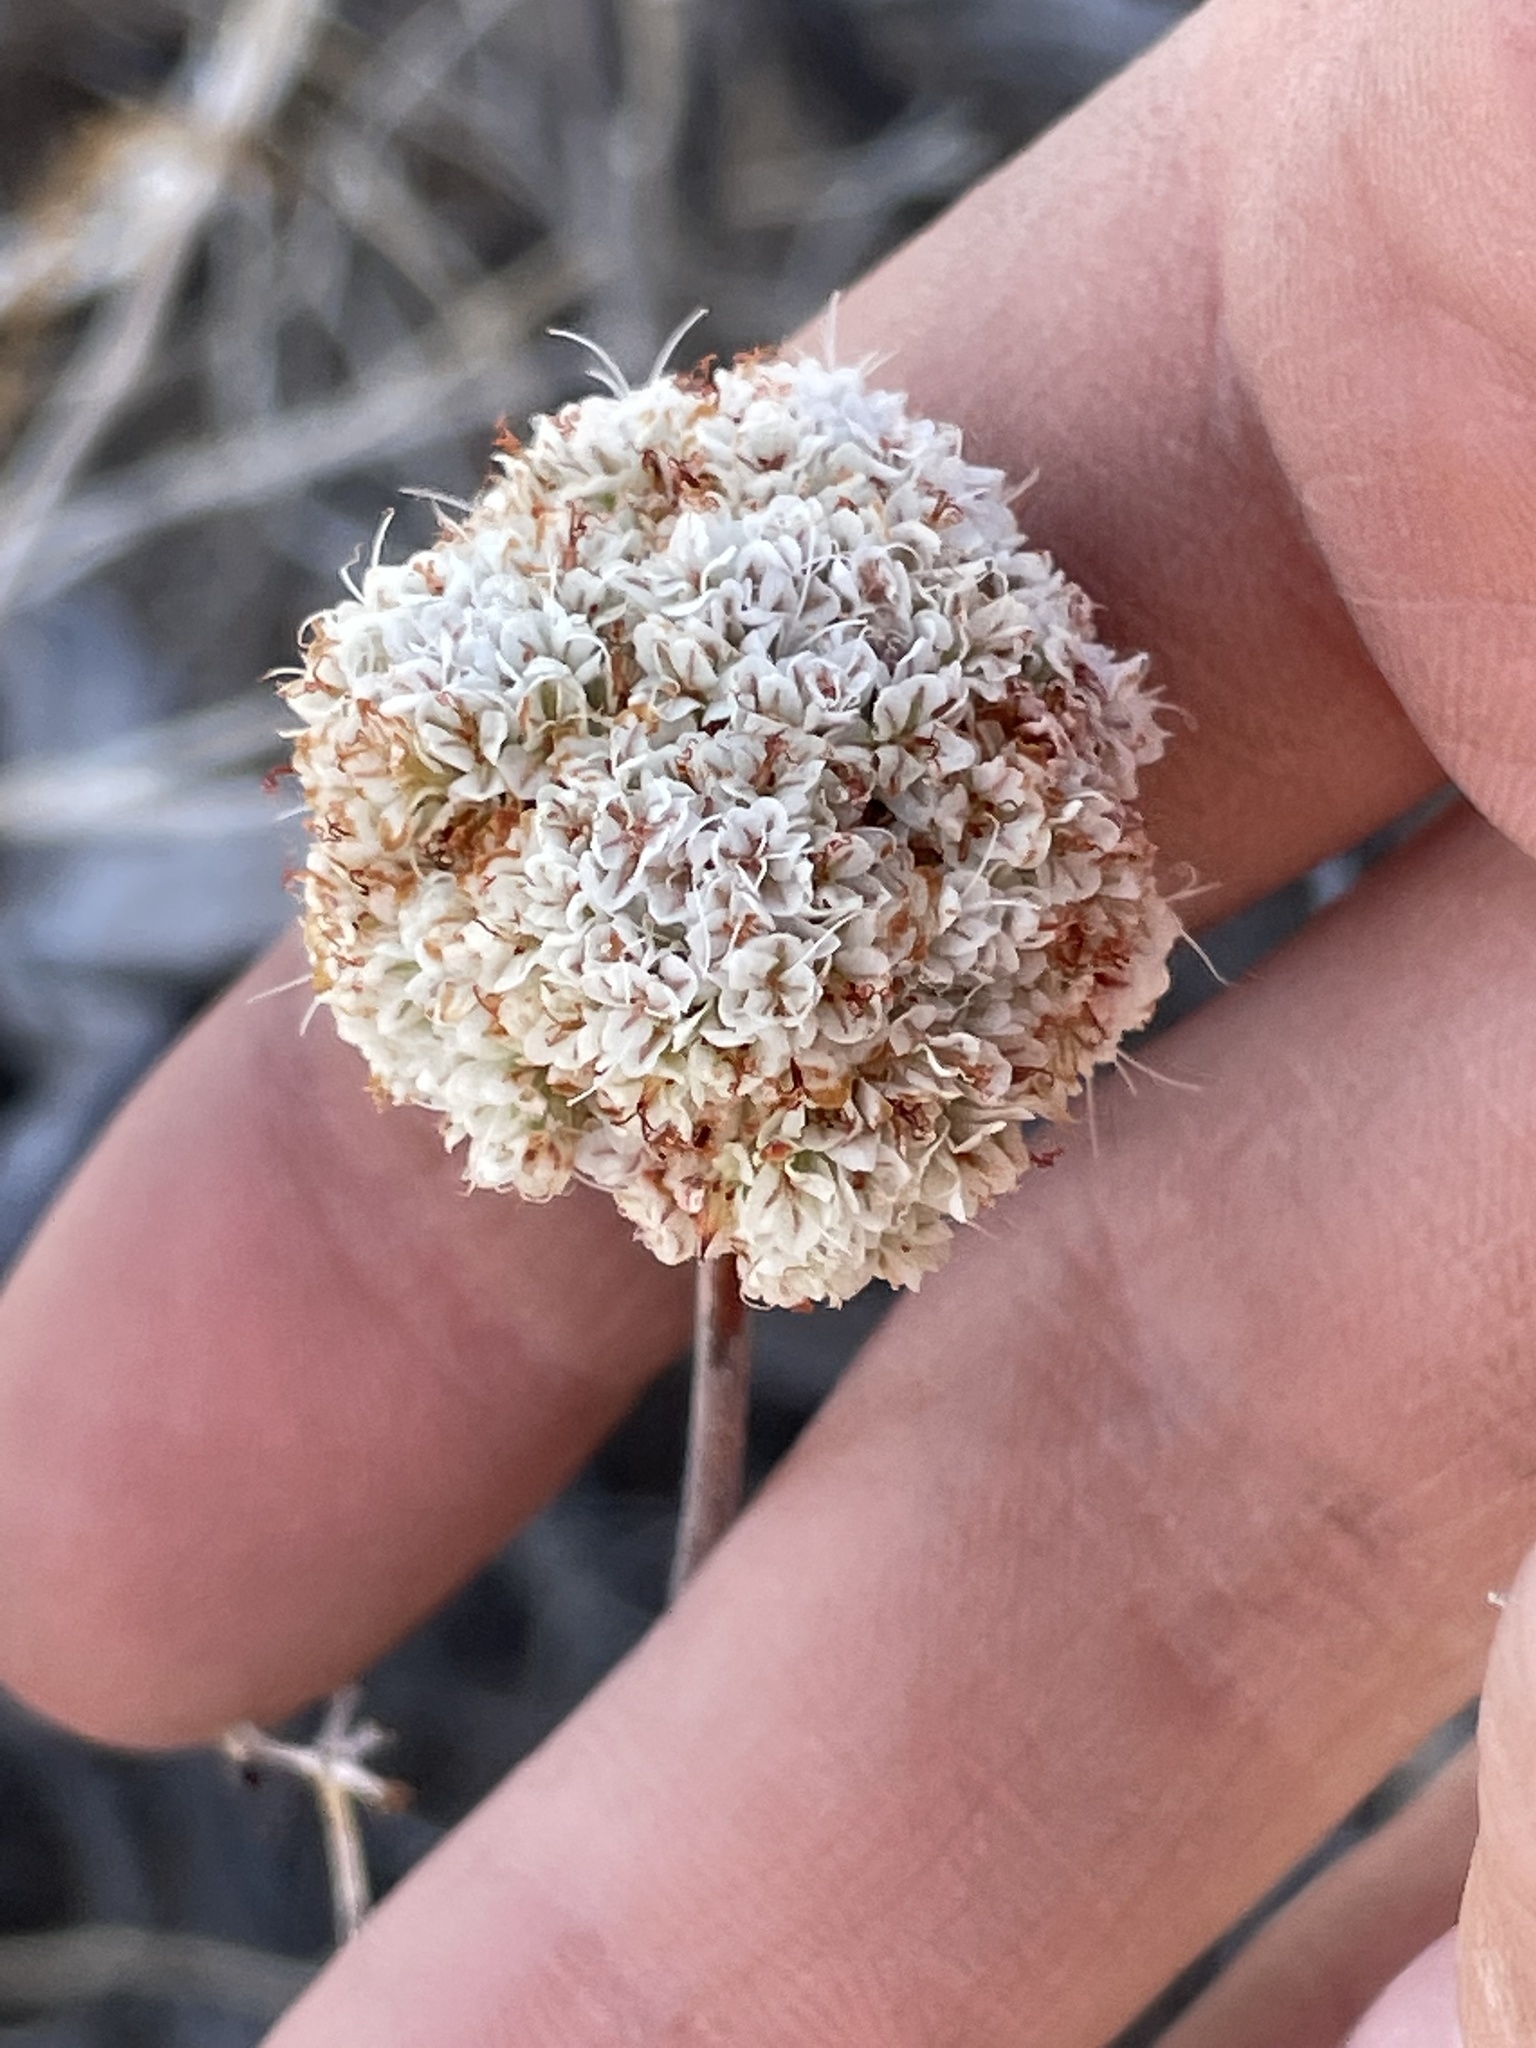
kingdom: Plantae
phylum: Tracheophyta
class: Magnoliopsida
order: Caryophyllales
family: Polygonaceae
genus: Eriogonum
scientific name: Eriogonum fasciculatum
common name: California wild buckwheat
